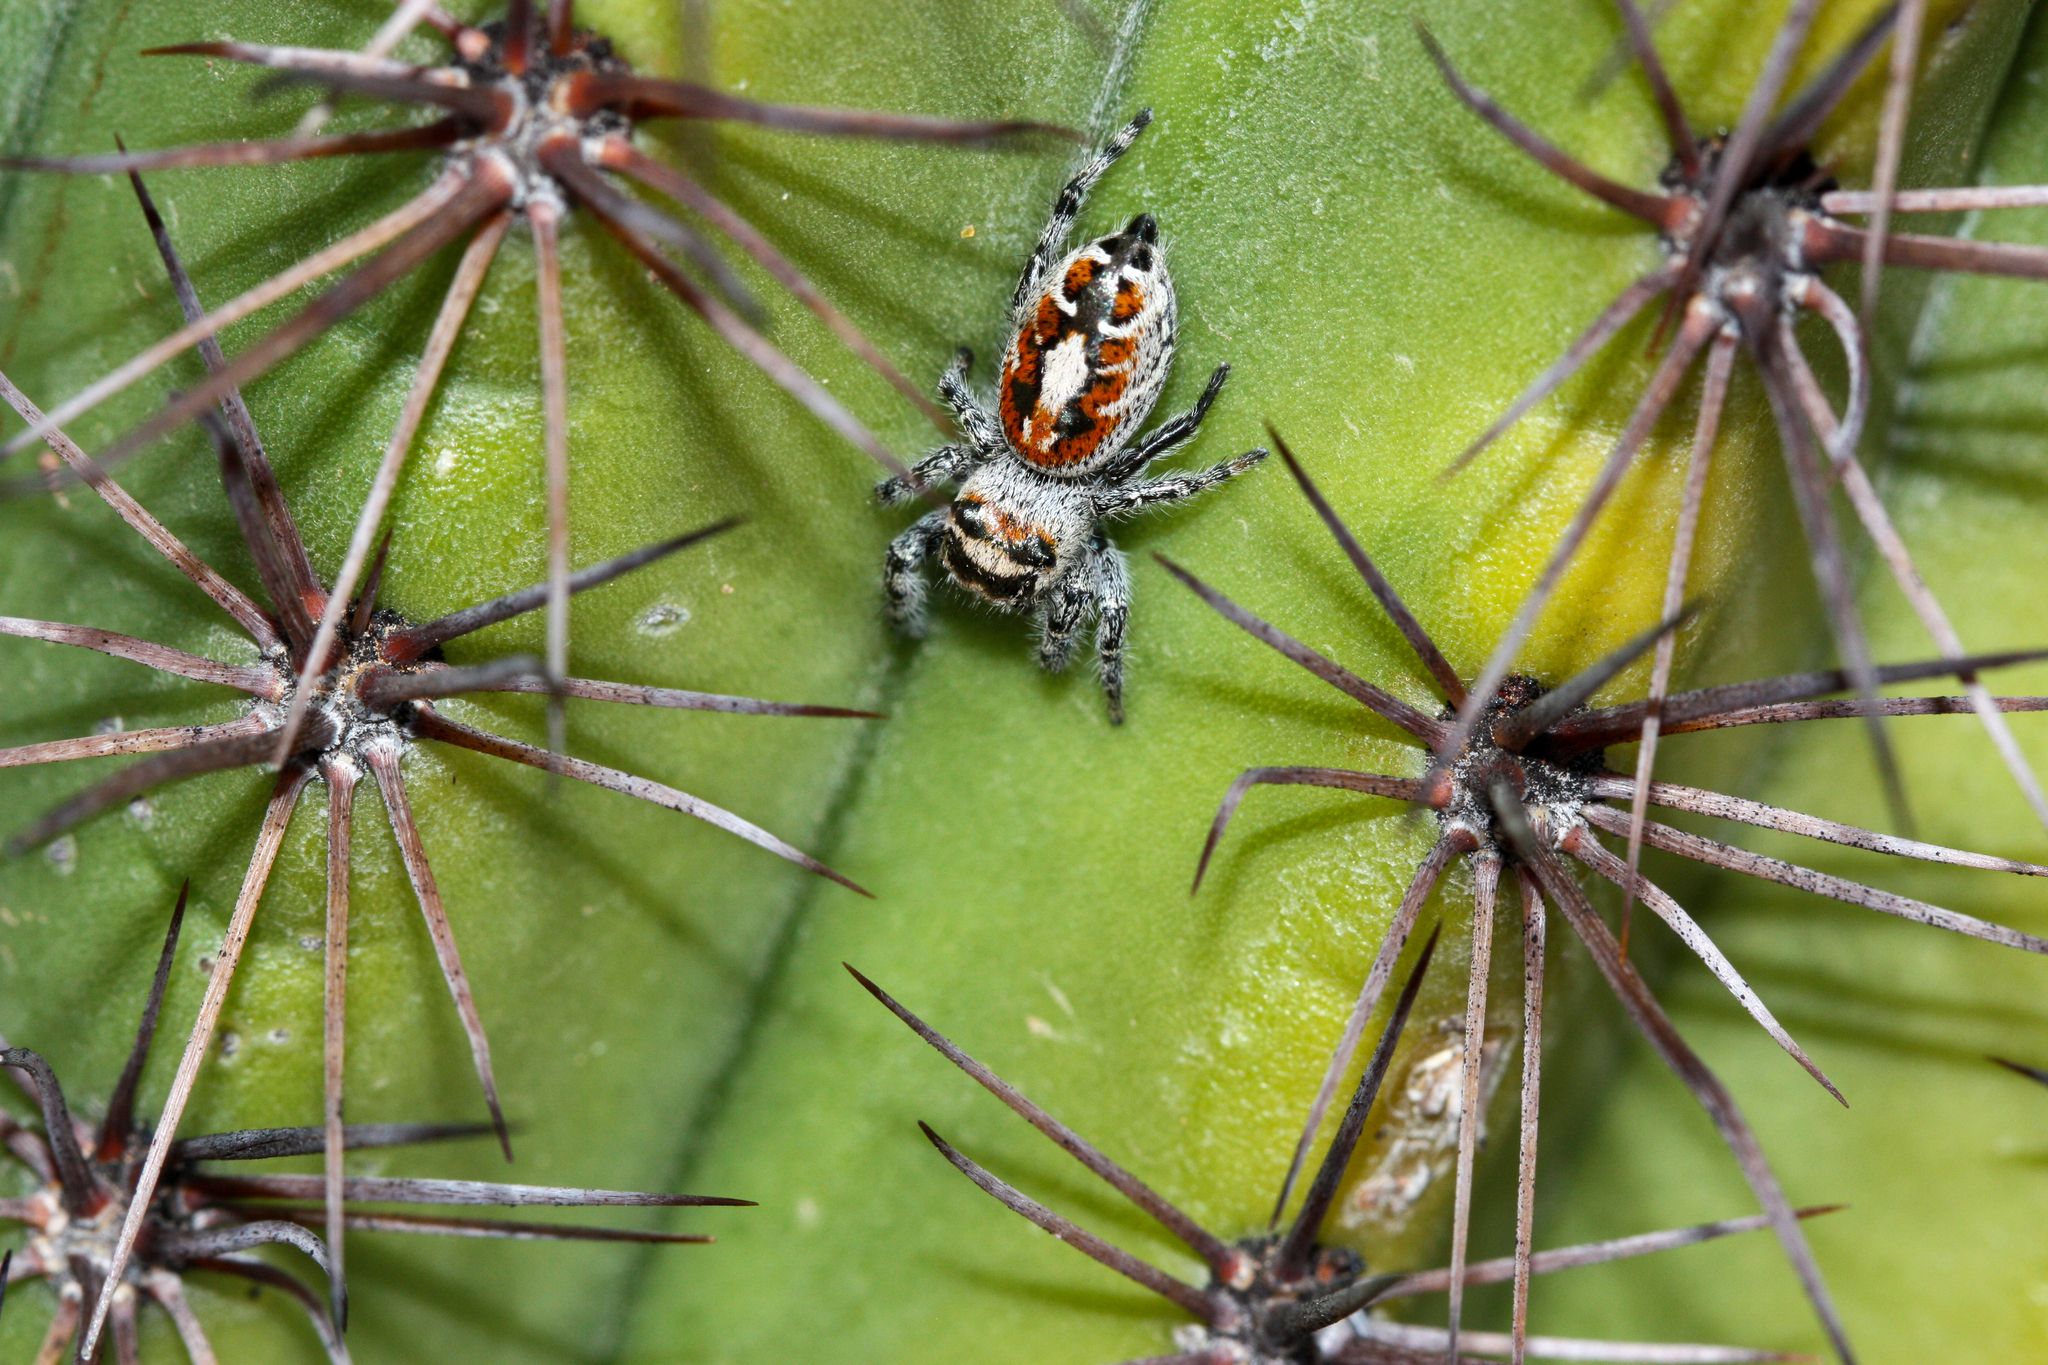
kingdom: Animalia
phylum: Arthropoda
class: Arachnida
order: Araneae
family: Salticidae
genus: Phidippus
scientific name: Phidippus phoenix
